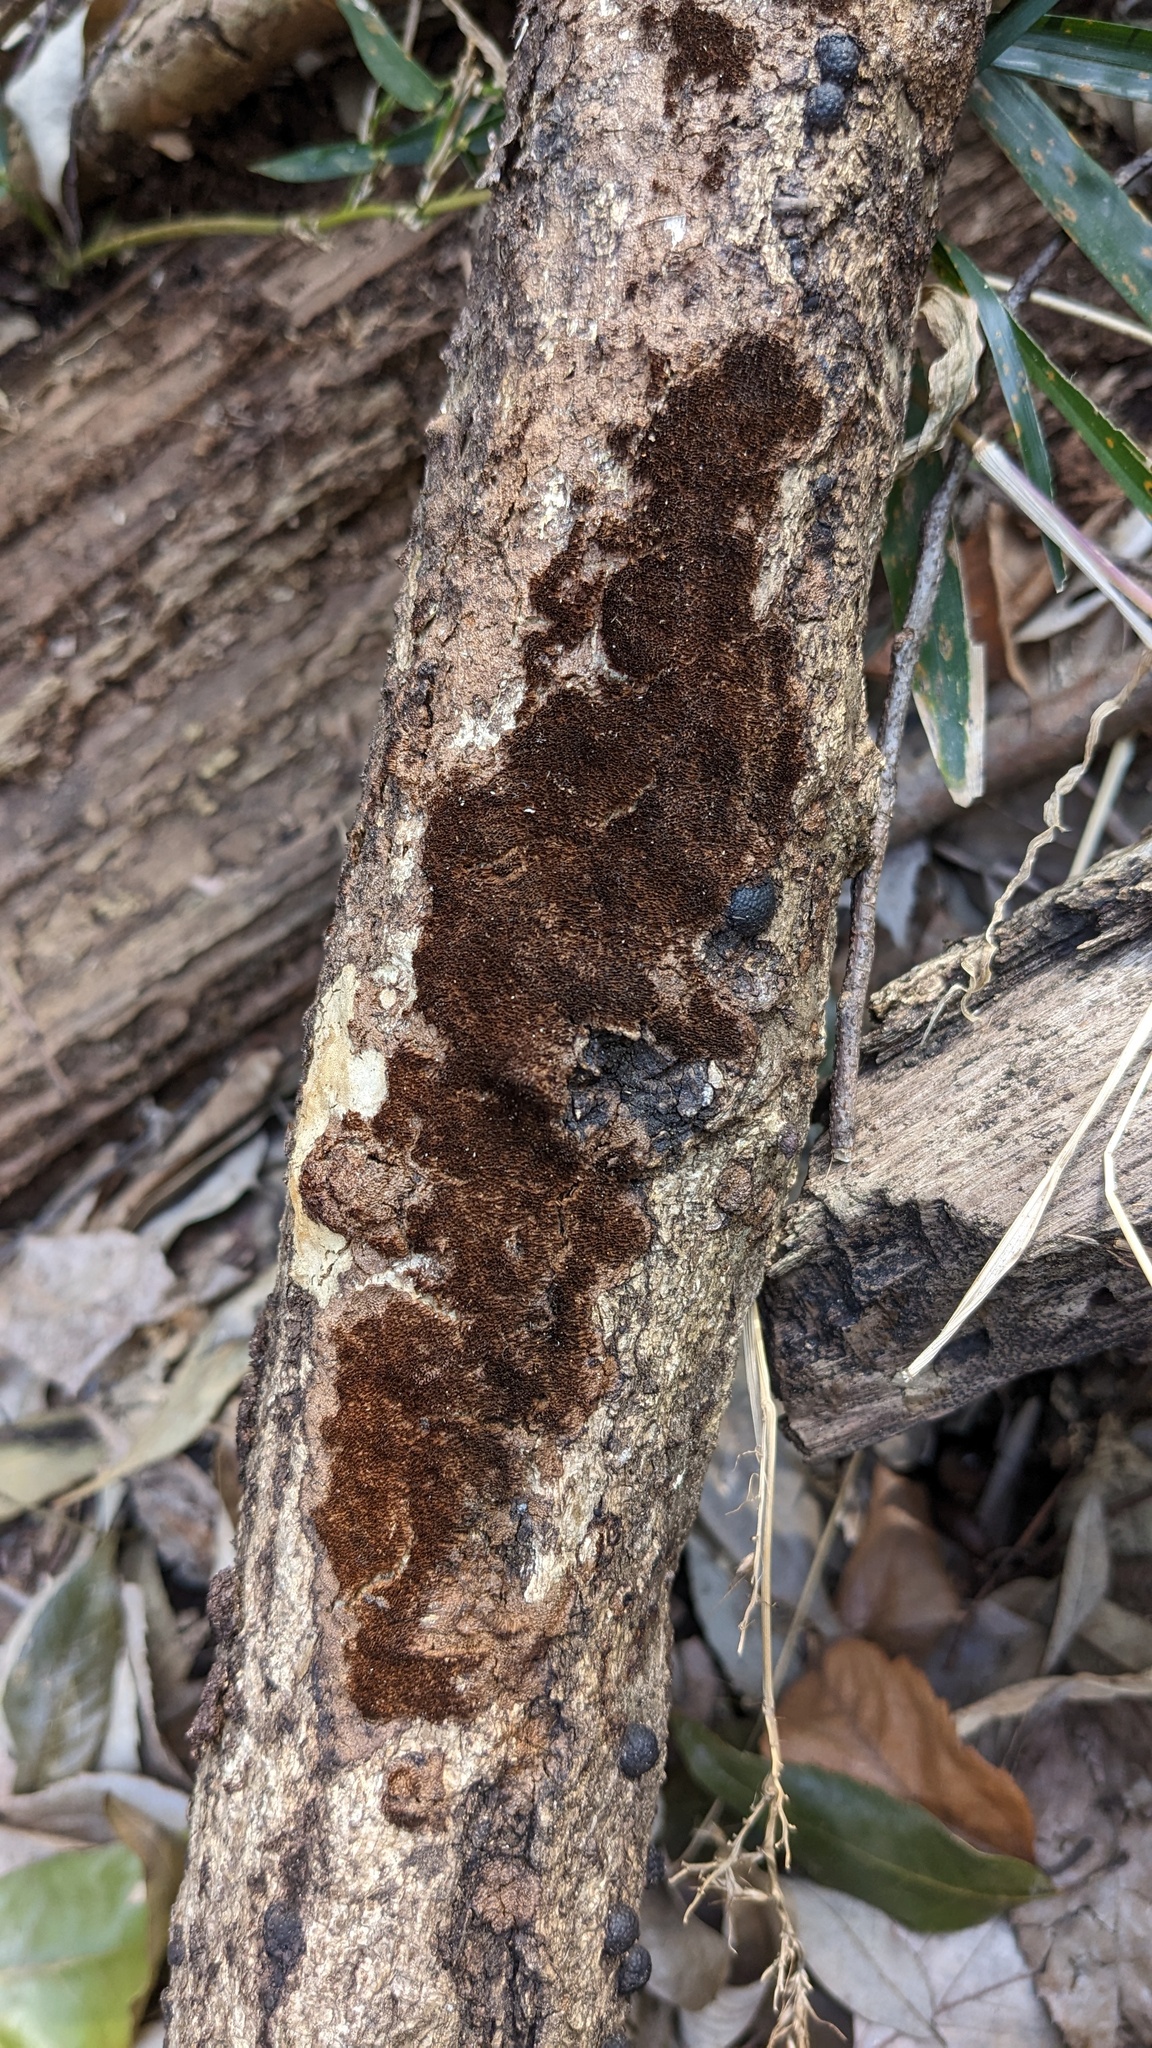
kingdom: Fungi
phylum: Basidiomycota
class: Agaricomycetes
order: Hymenochaetales
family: Hymenochaetaceae
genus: Fuscoporia
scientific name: Fuscoporia setifera
